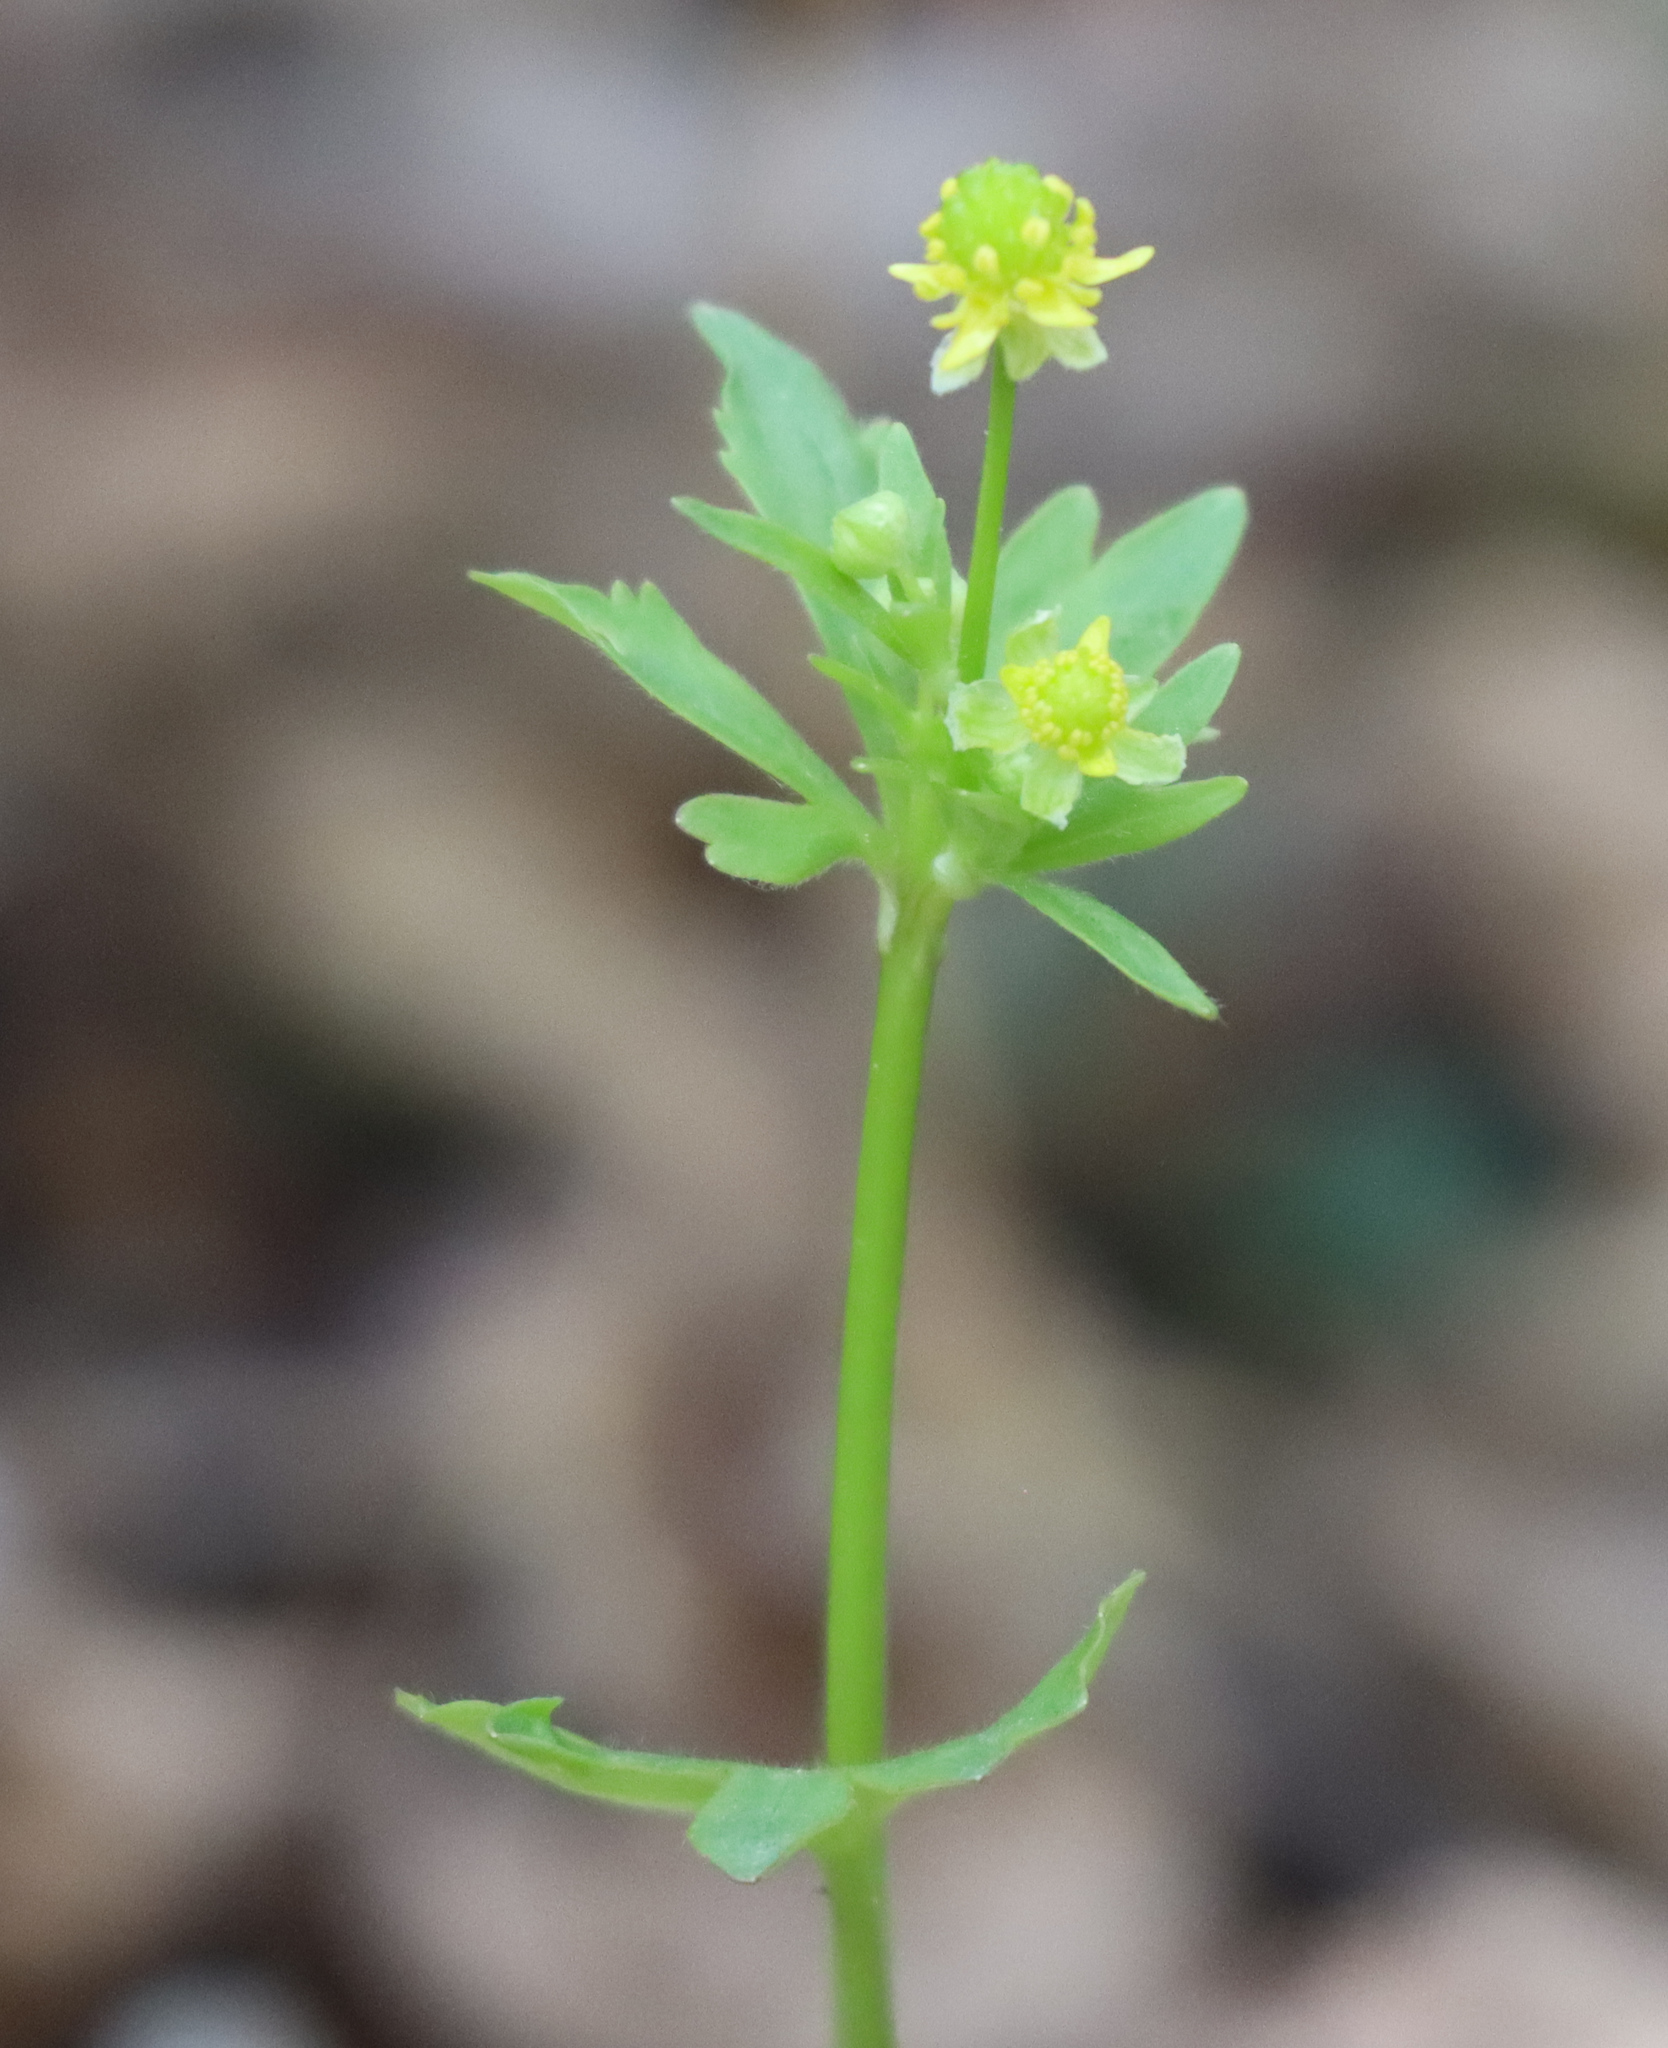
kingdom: Plantae
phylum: Tracheophyta
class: Magnoliopsida
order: Ranunculales
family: Ranunculaceae
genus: Ranunculus
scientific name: Ranunculus abortivus
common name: Early wood buttercup
